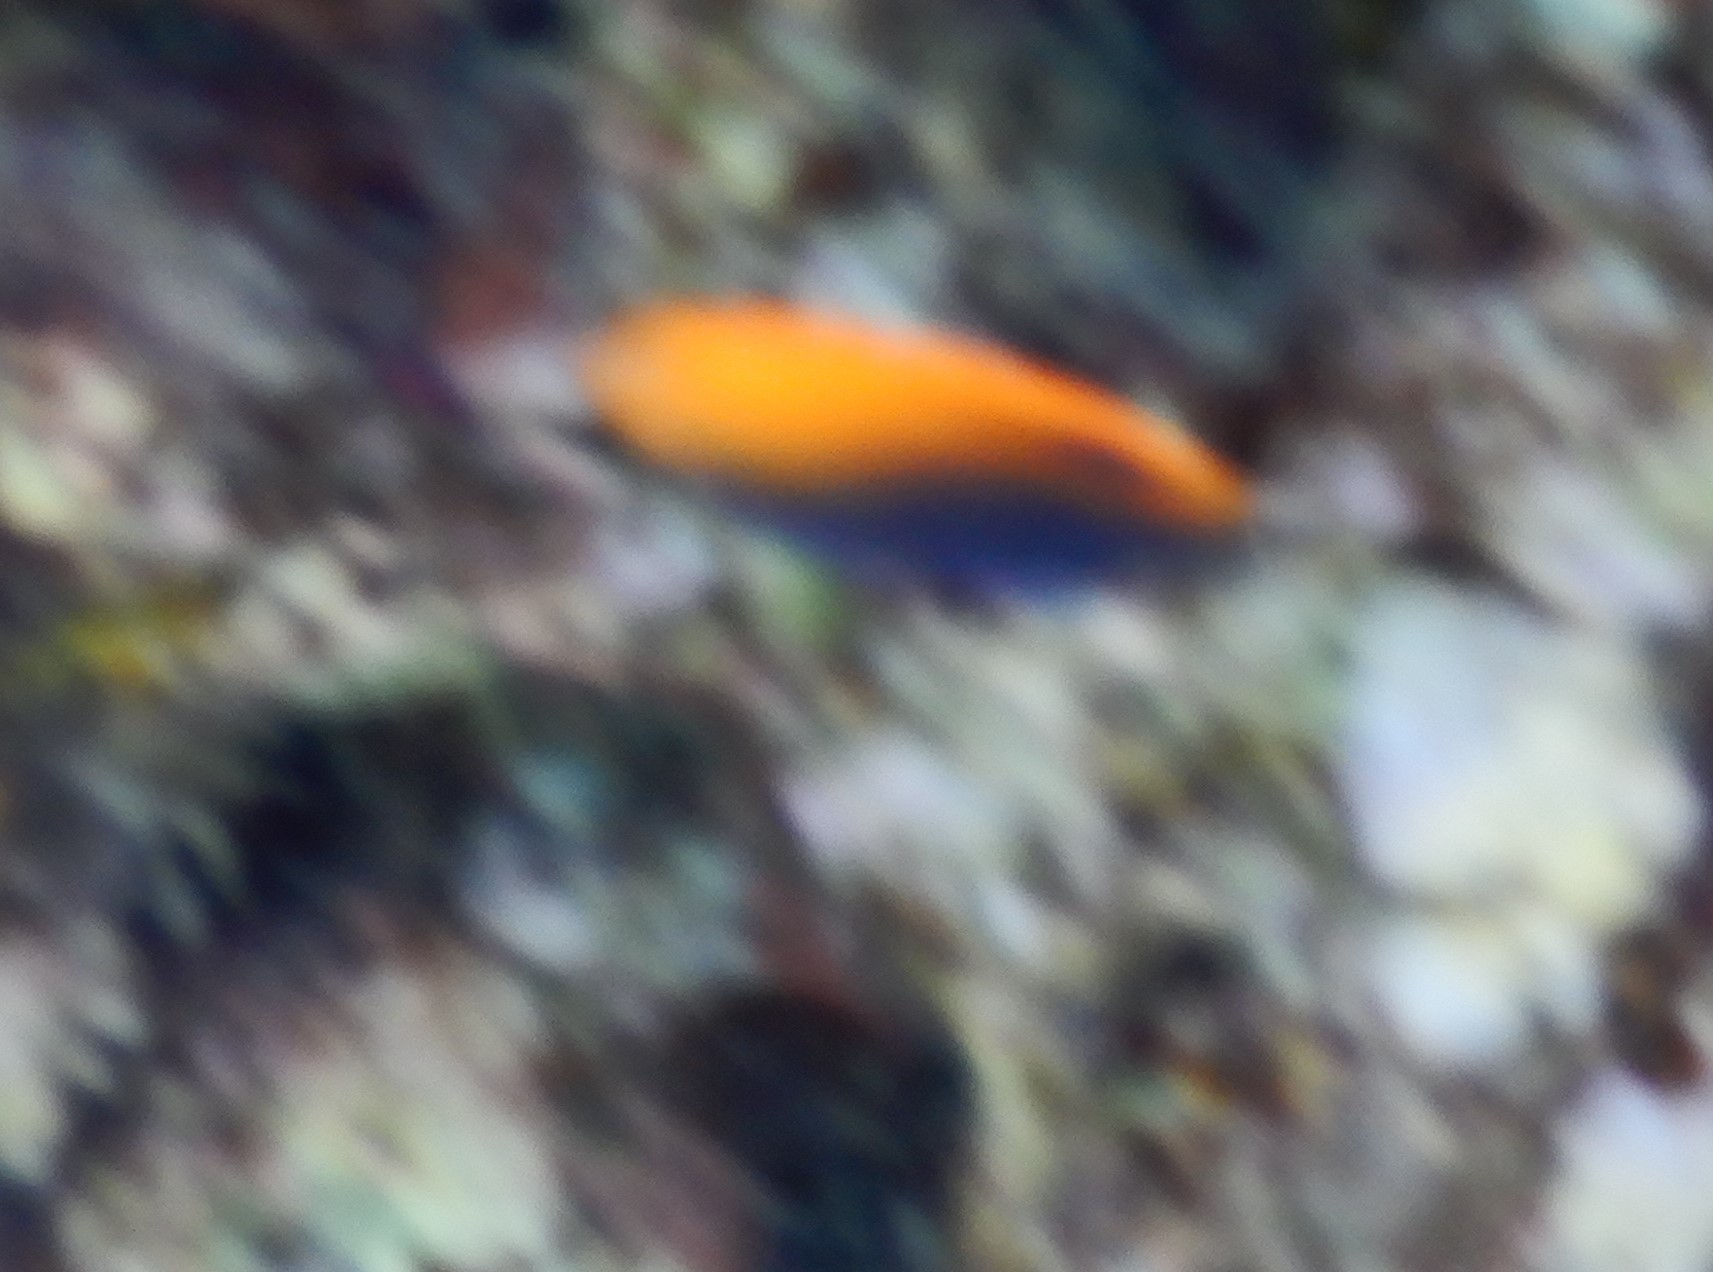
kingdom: Animalia
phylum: Chordata
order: Perciformes
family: Pomacentridae
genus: Pomacentrus
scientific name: Pomacentrus vaiuli
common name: Princess damsel
